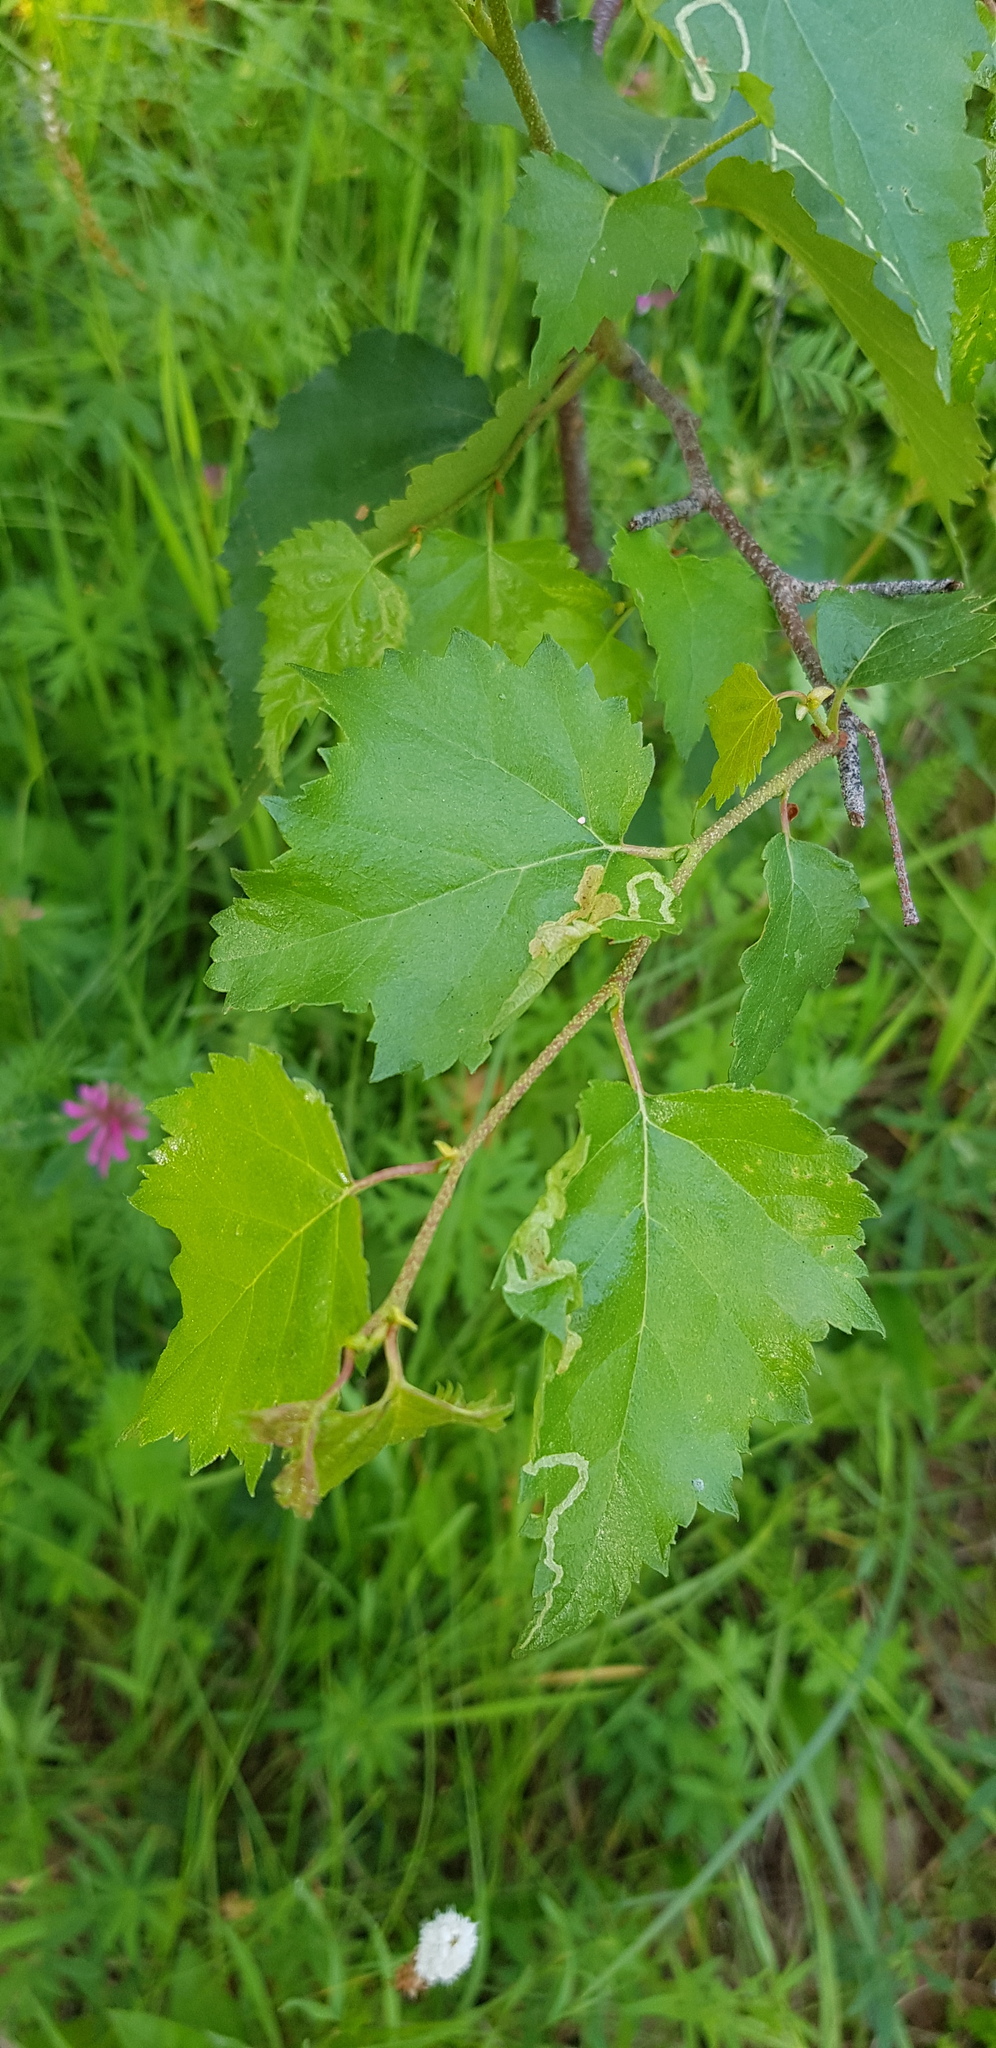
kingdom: Plantae
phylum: Tracheophyta
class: Magnoliopsida
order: Fagales
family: Betulaceae
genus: Betula
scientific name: Betula fruticosa
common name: Japanese bog birch
